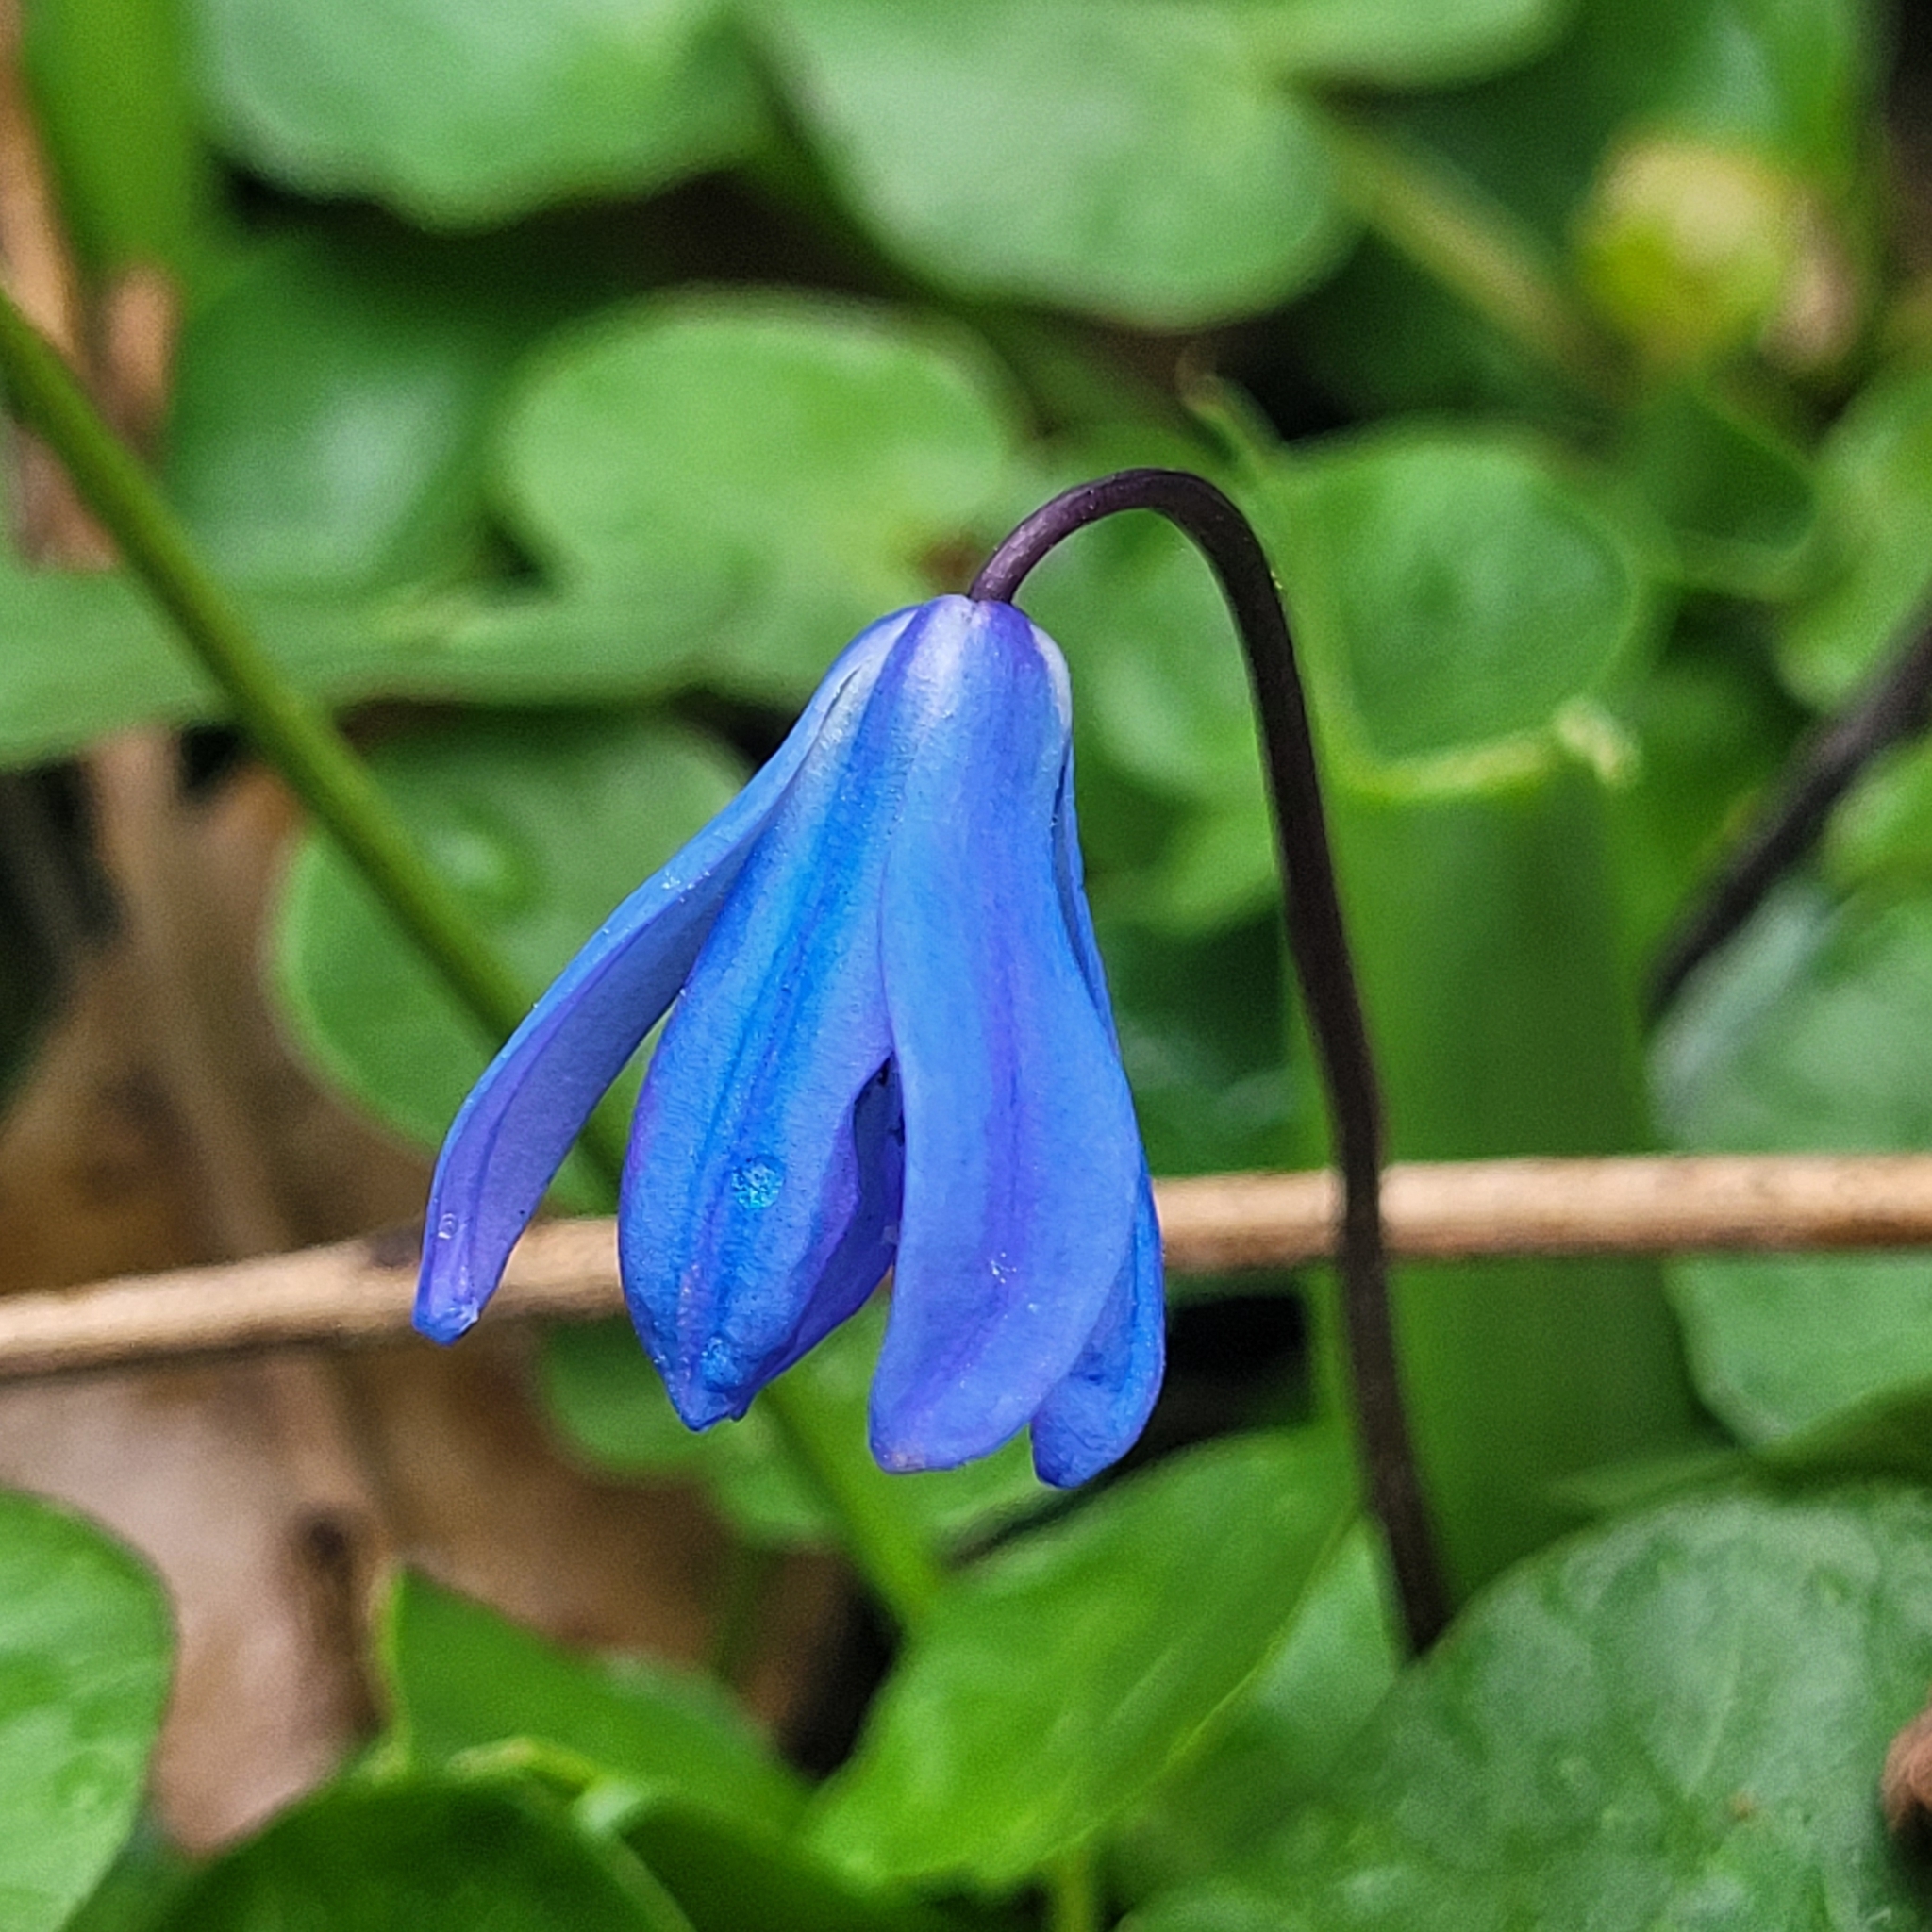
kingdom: Plantae
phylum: Tracheophyta
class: Liliopsida
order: Asparagales
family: Asparagaceae
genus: Scilla
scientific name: Scilla siberica
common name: Siberian squill
